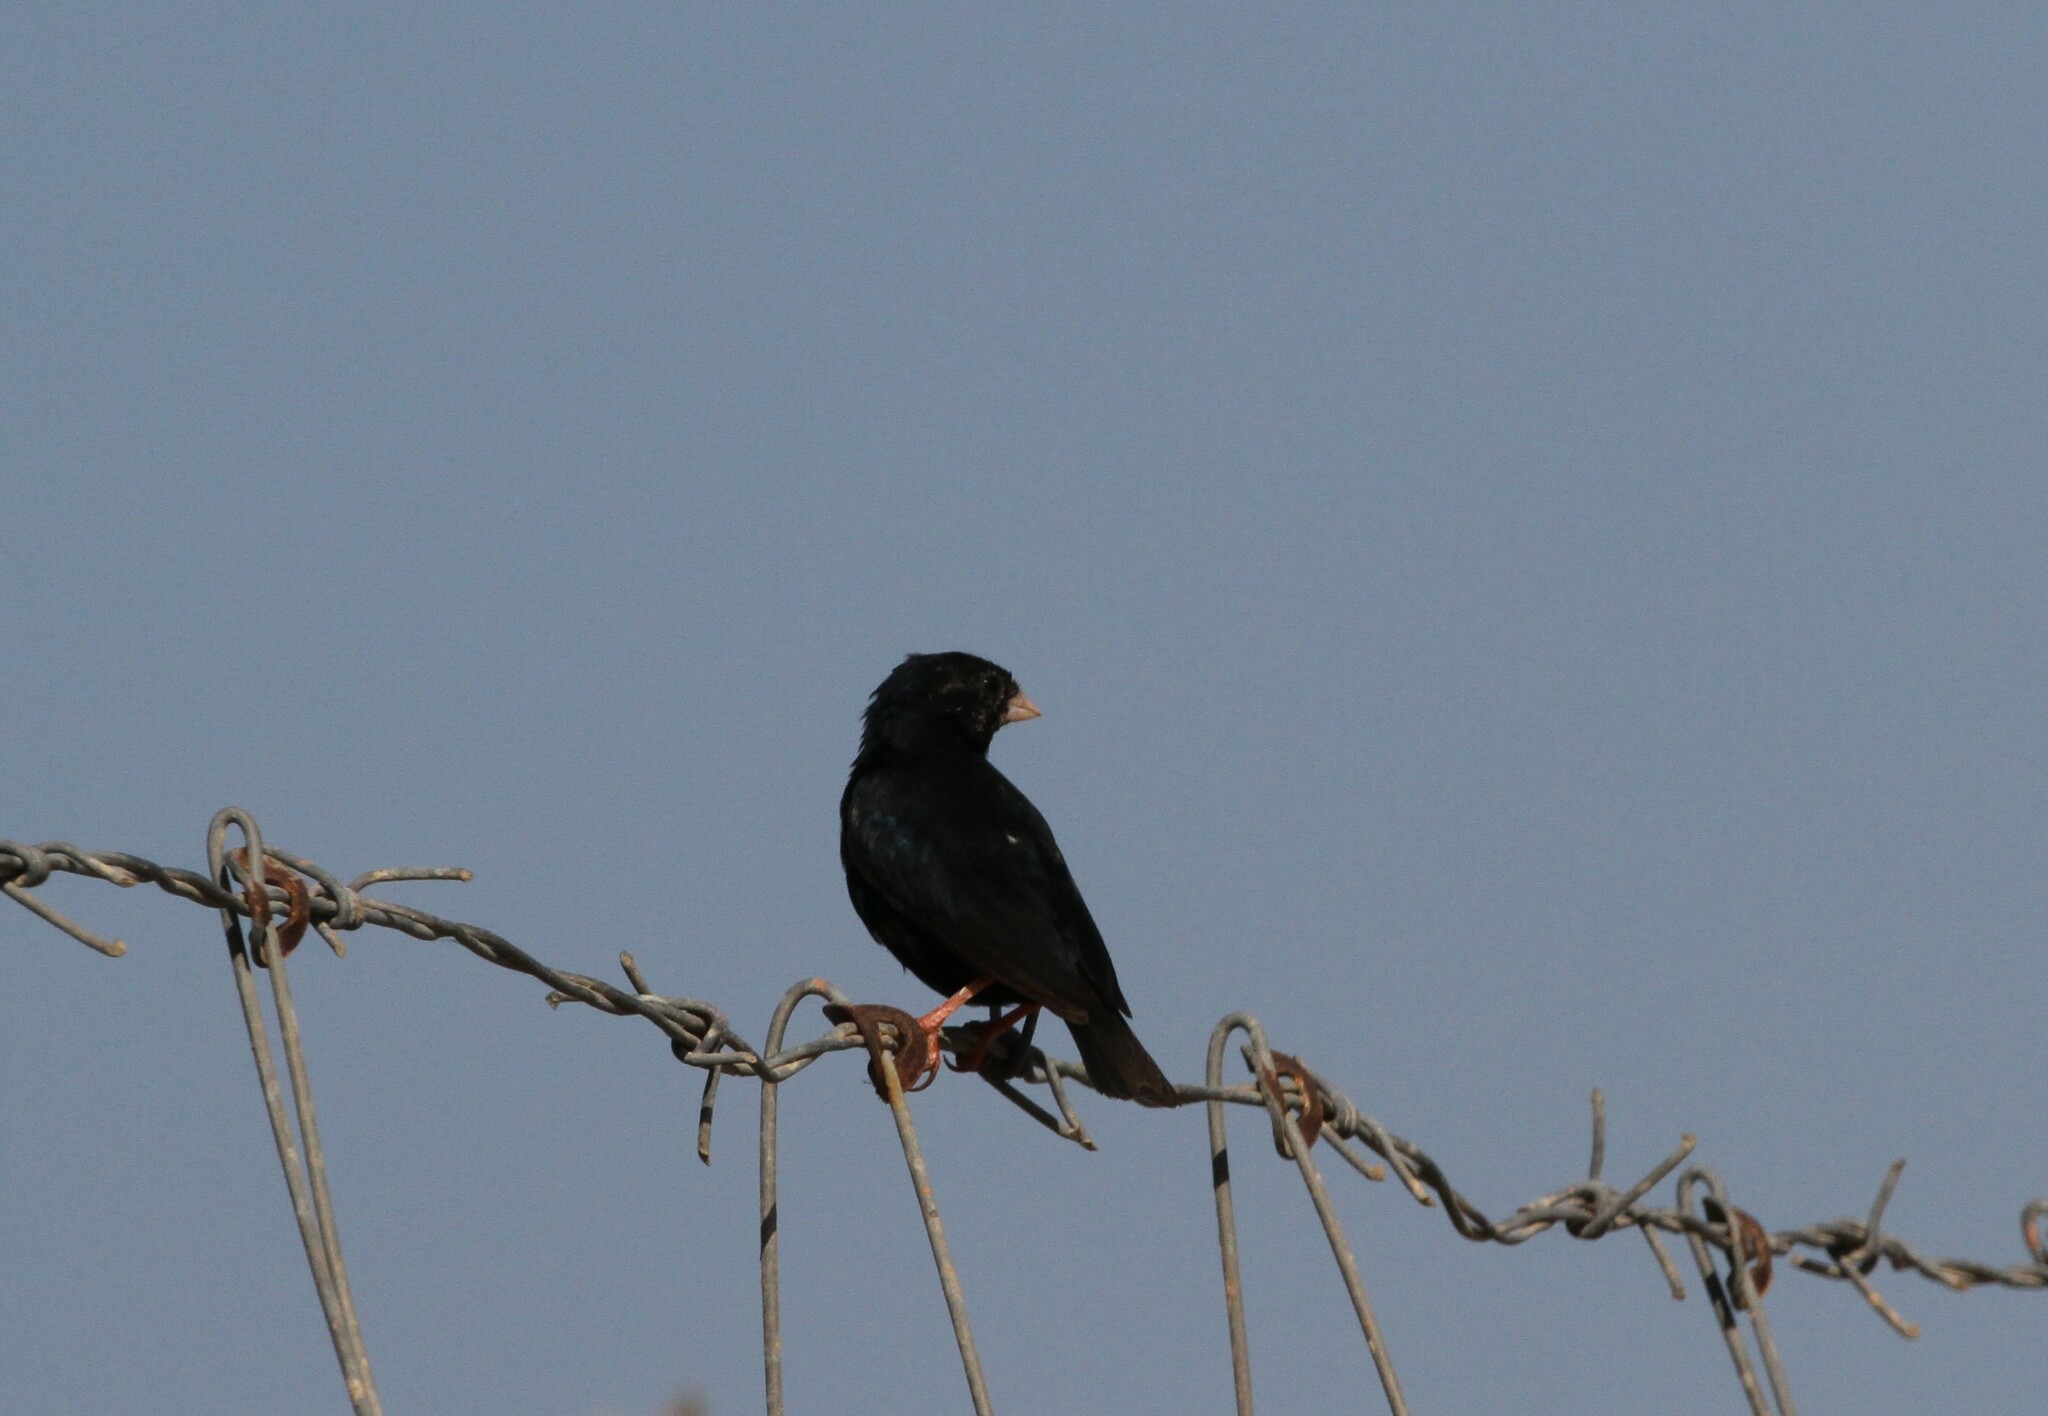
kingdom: Animalia
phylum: Chordata
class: Aves
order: Passeriformes
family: Viduidae
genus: Vidua
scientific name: Vidua chalybeata
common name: Village indigobird
